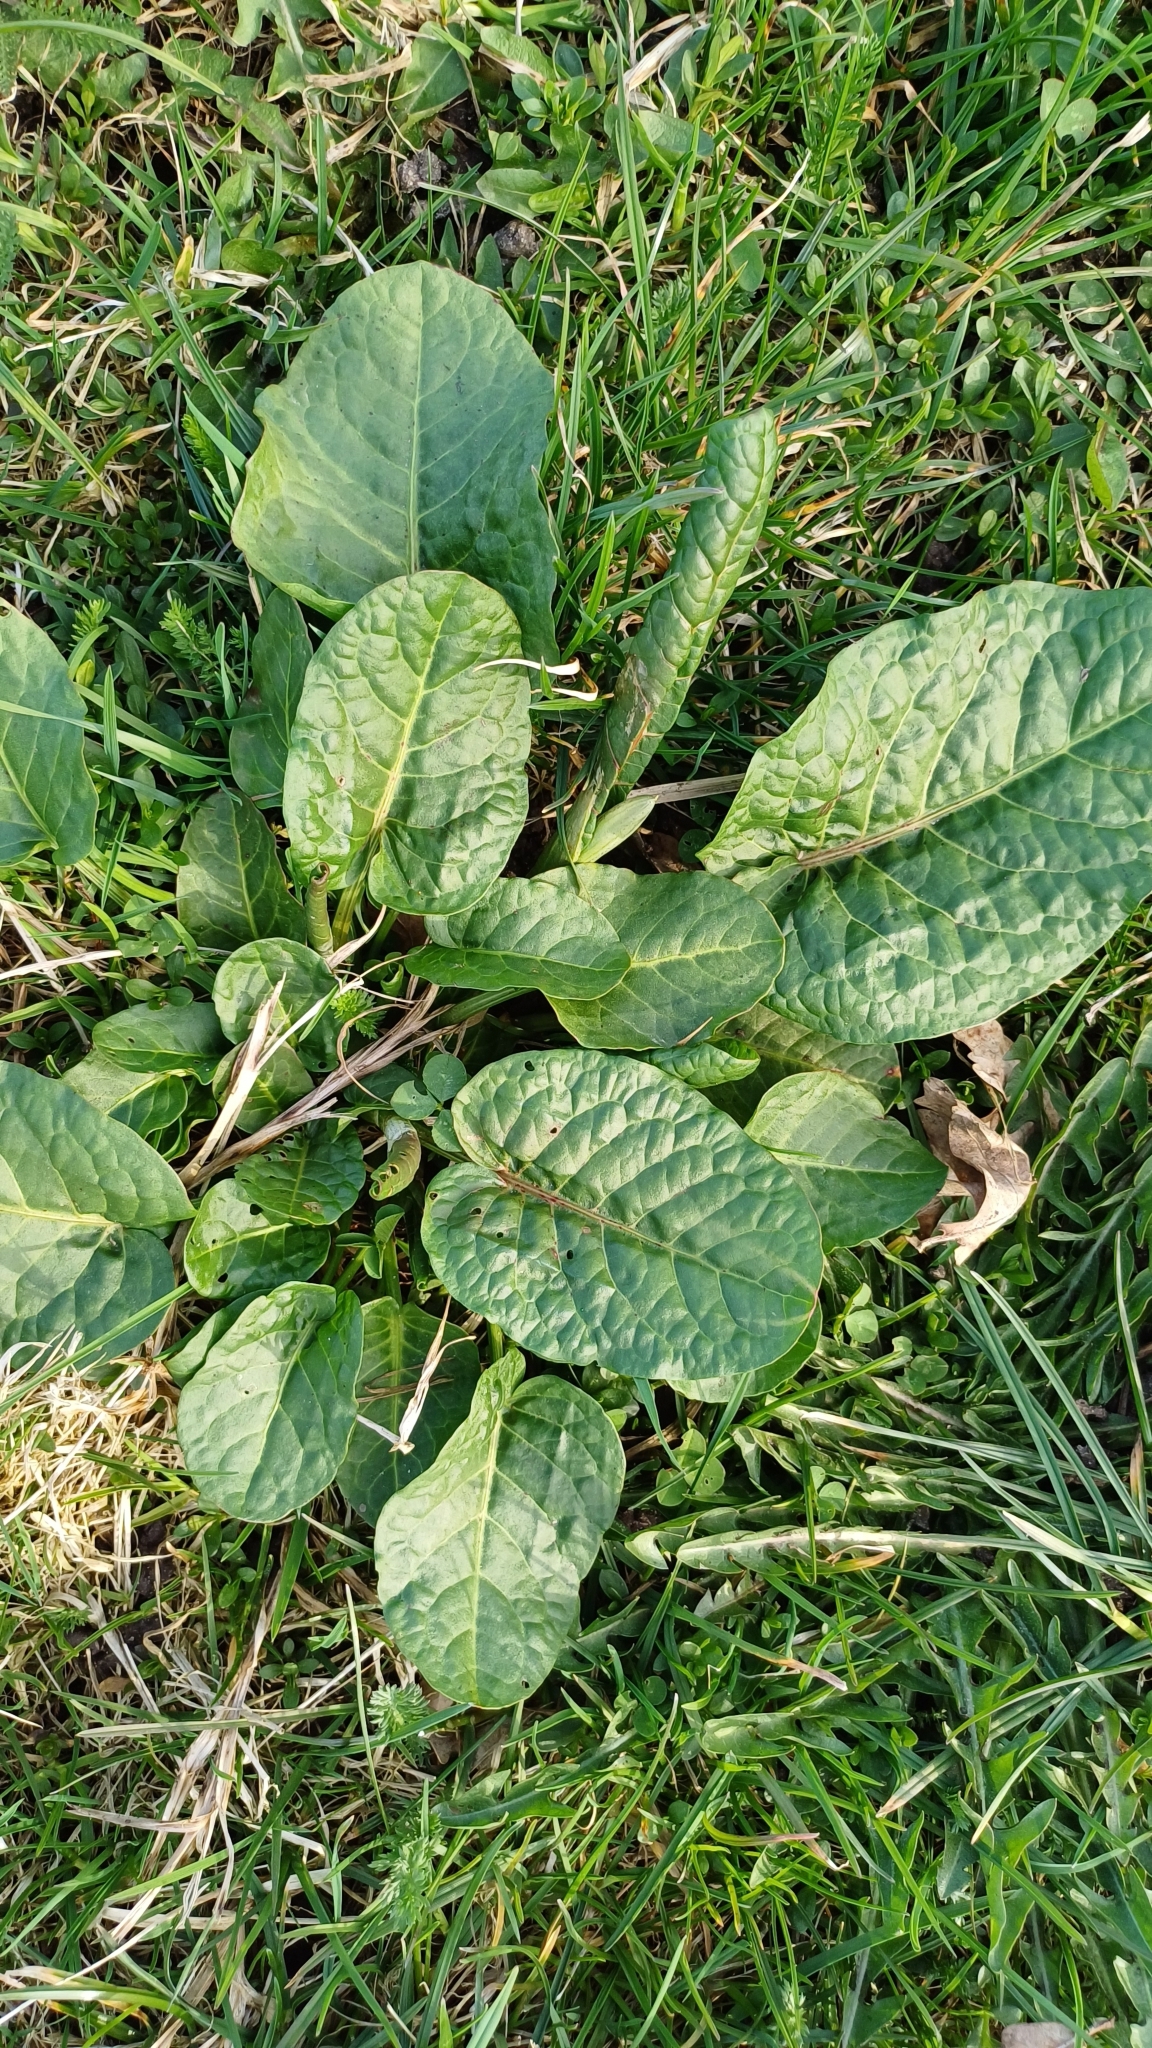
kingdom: Plantae
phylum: Tracheophyta
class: Magnoliopsida
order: Caryophyllales
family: Polygonaceae
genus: Rumex
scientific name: Rumex obtusifolius
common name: Bitter dock
